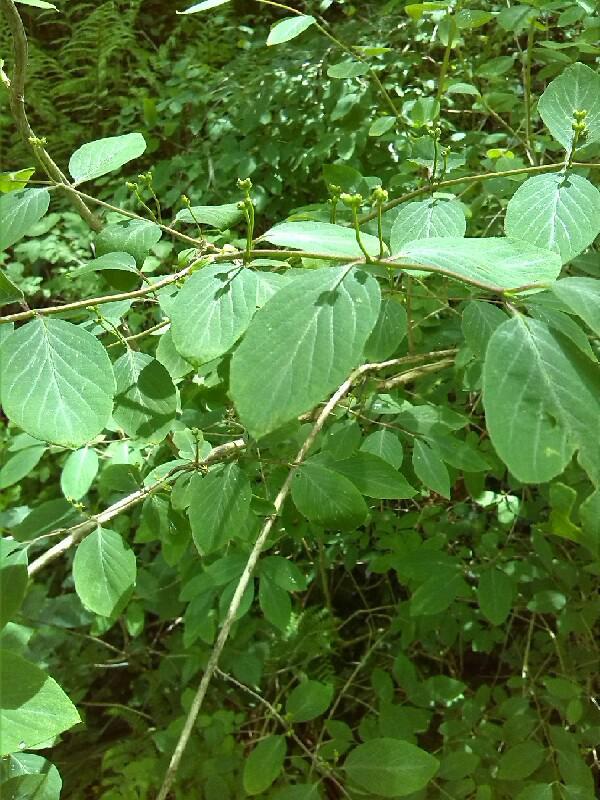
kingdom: Plantae
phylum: Tracheophyta
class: Magnoliopsida
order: Dipsacales
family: Caprifoliaceae
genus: Lonicera
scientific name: Lonicera alpigena
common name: Alpine honeysuckle
